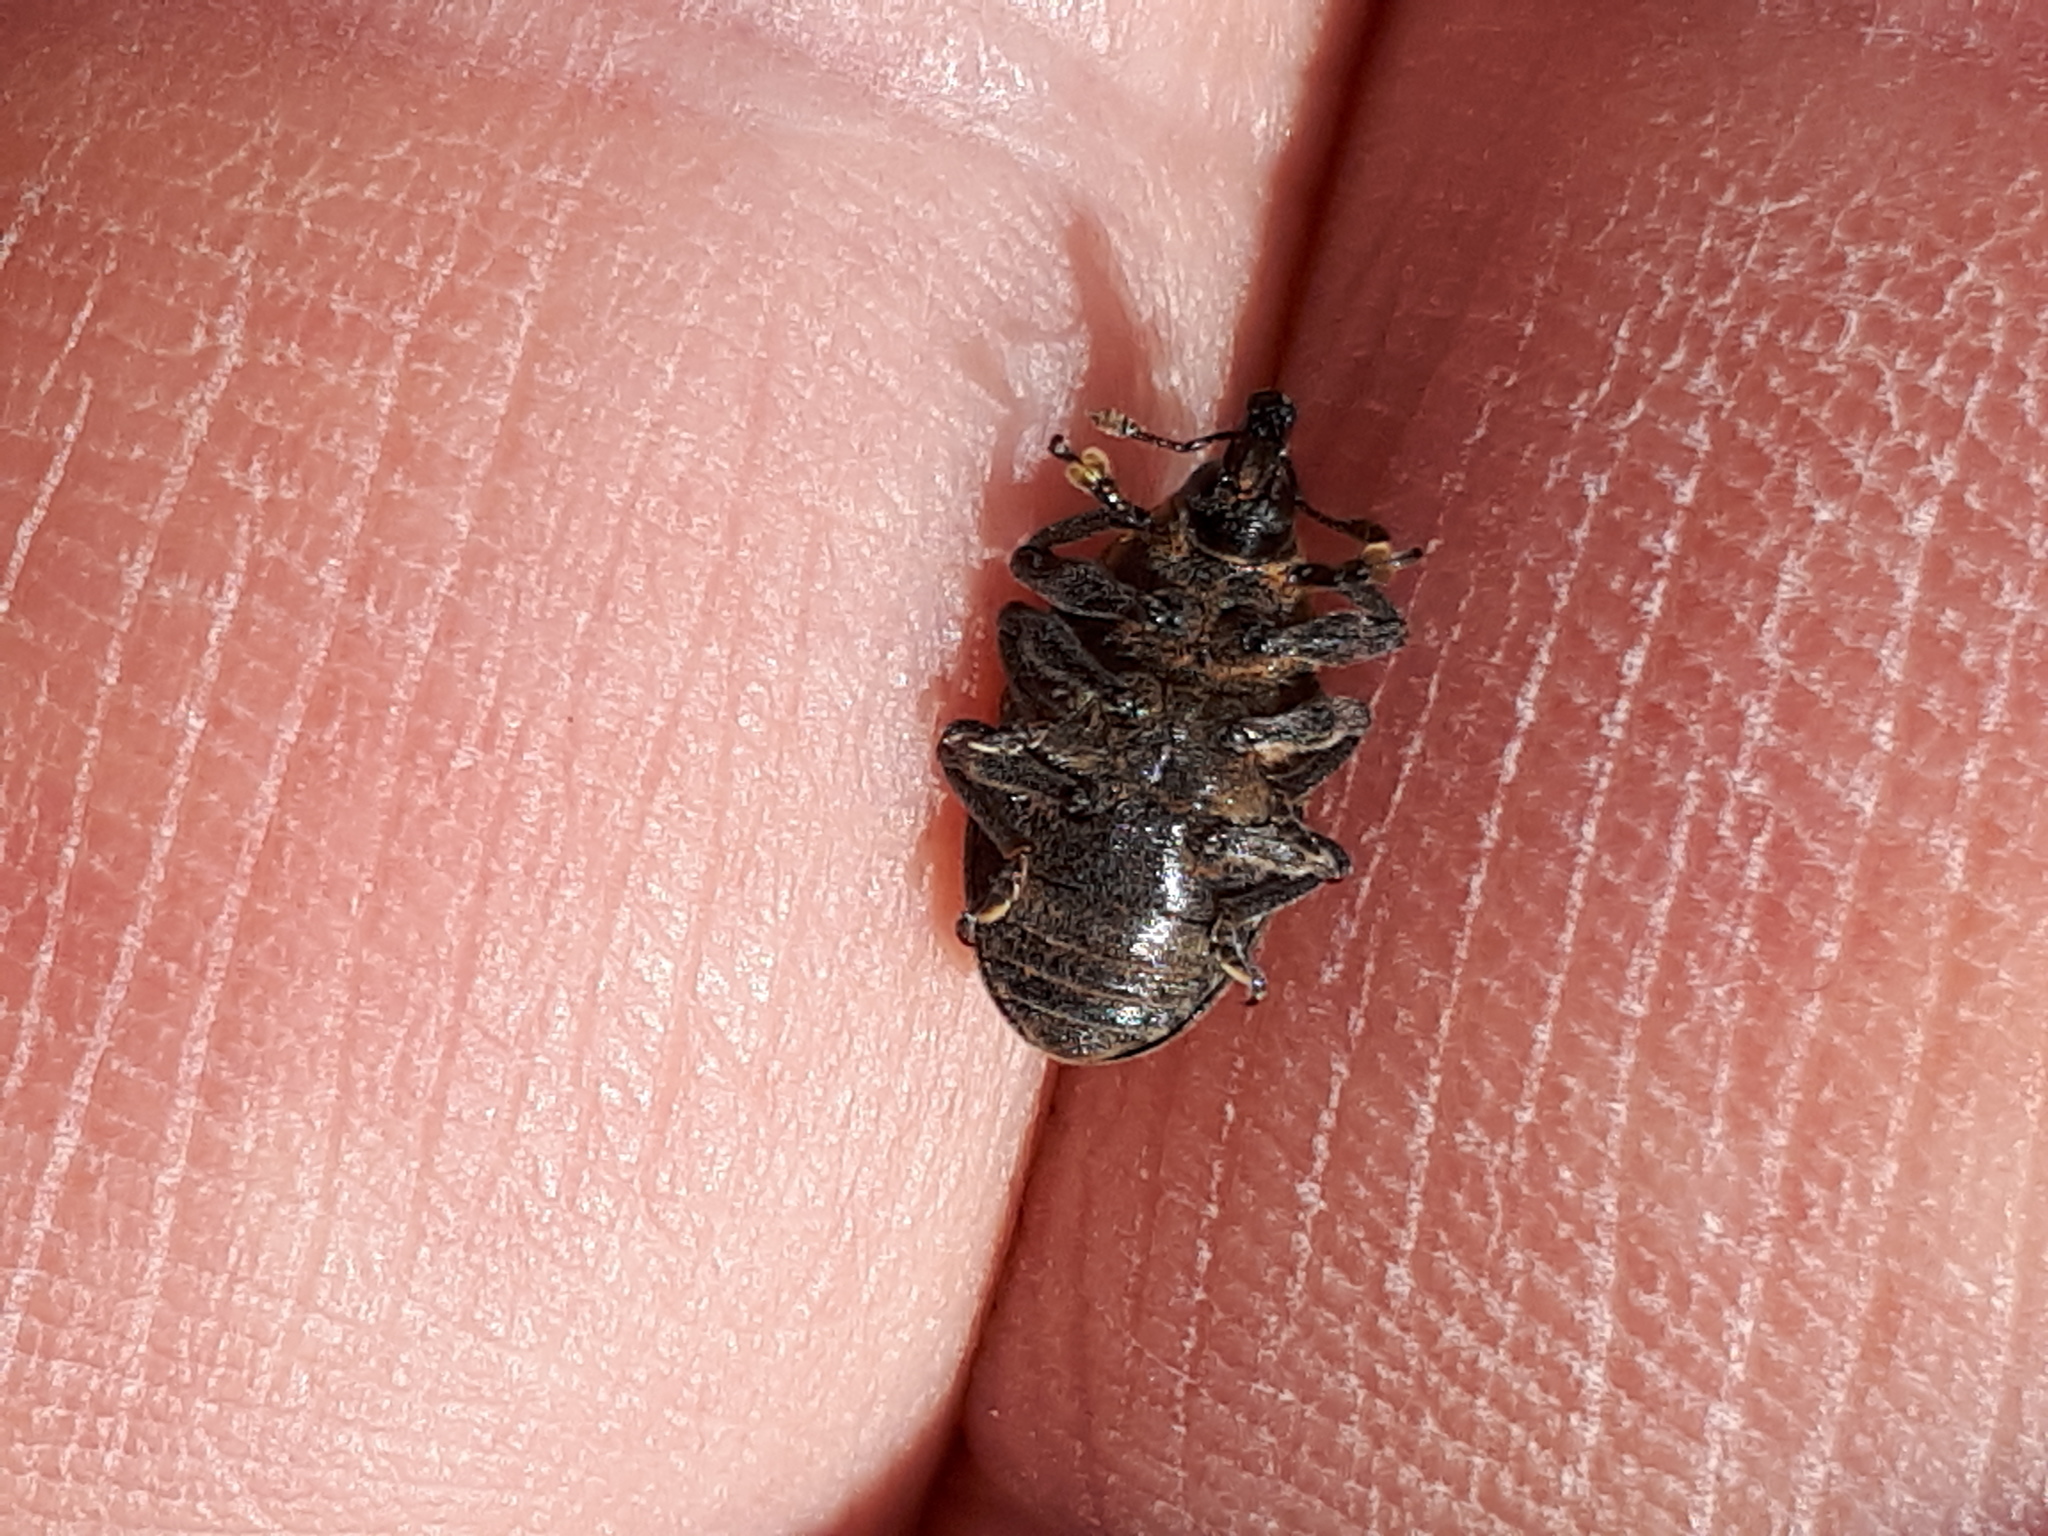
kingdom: Animalia
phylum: Arthropoda
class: Insecta
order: Coleoptera
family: Curculionidae
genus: Larinus
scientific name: Larinus turbinatus
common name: Weevil
